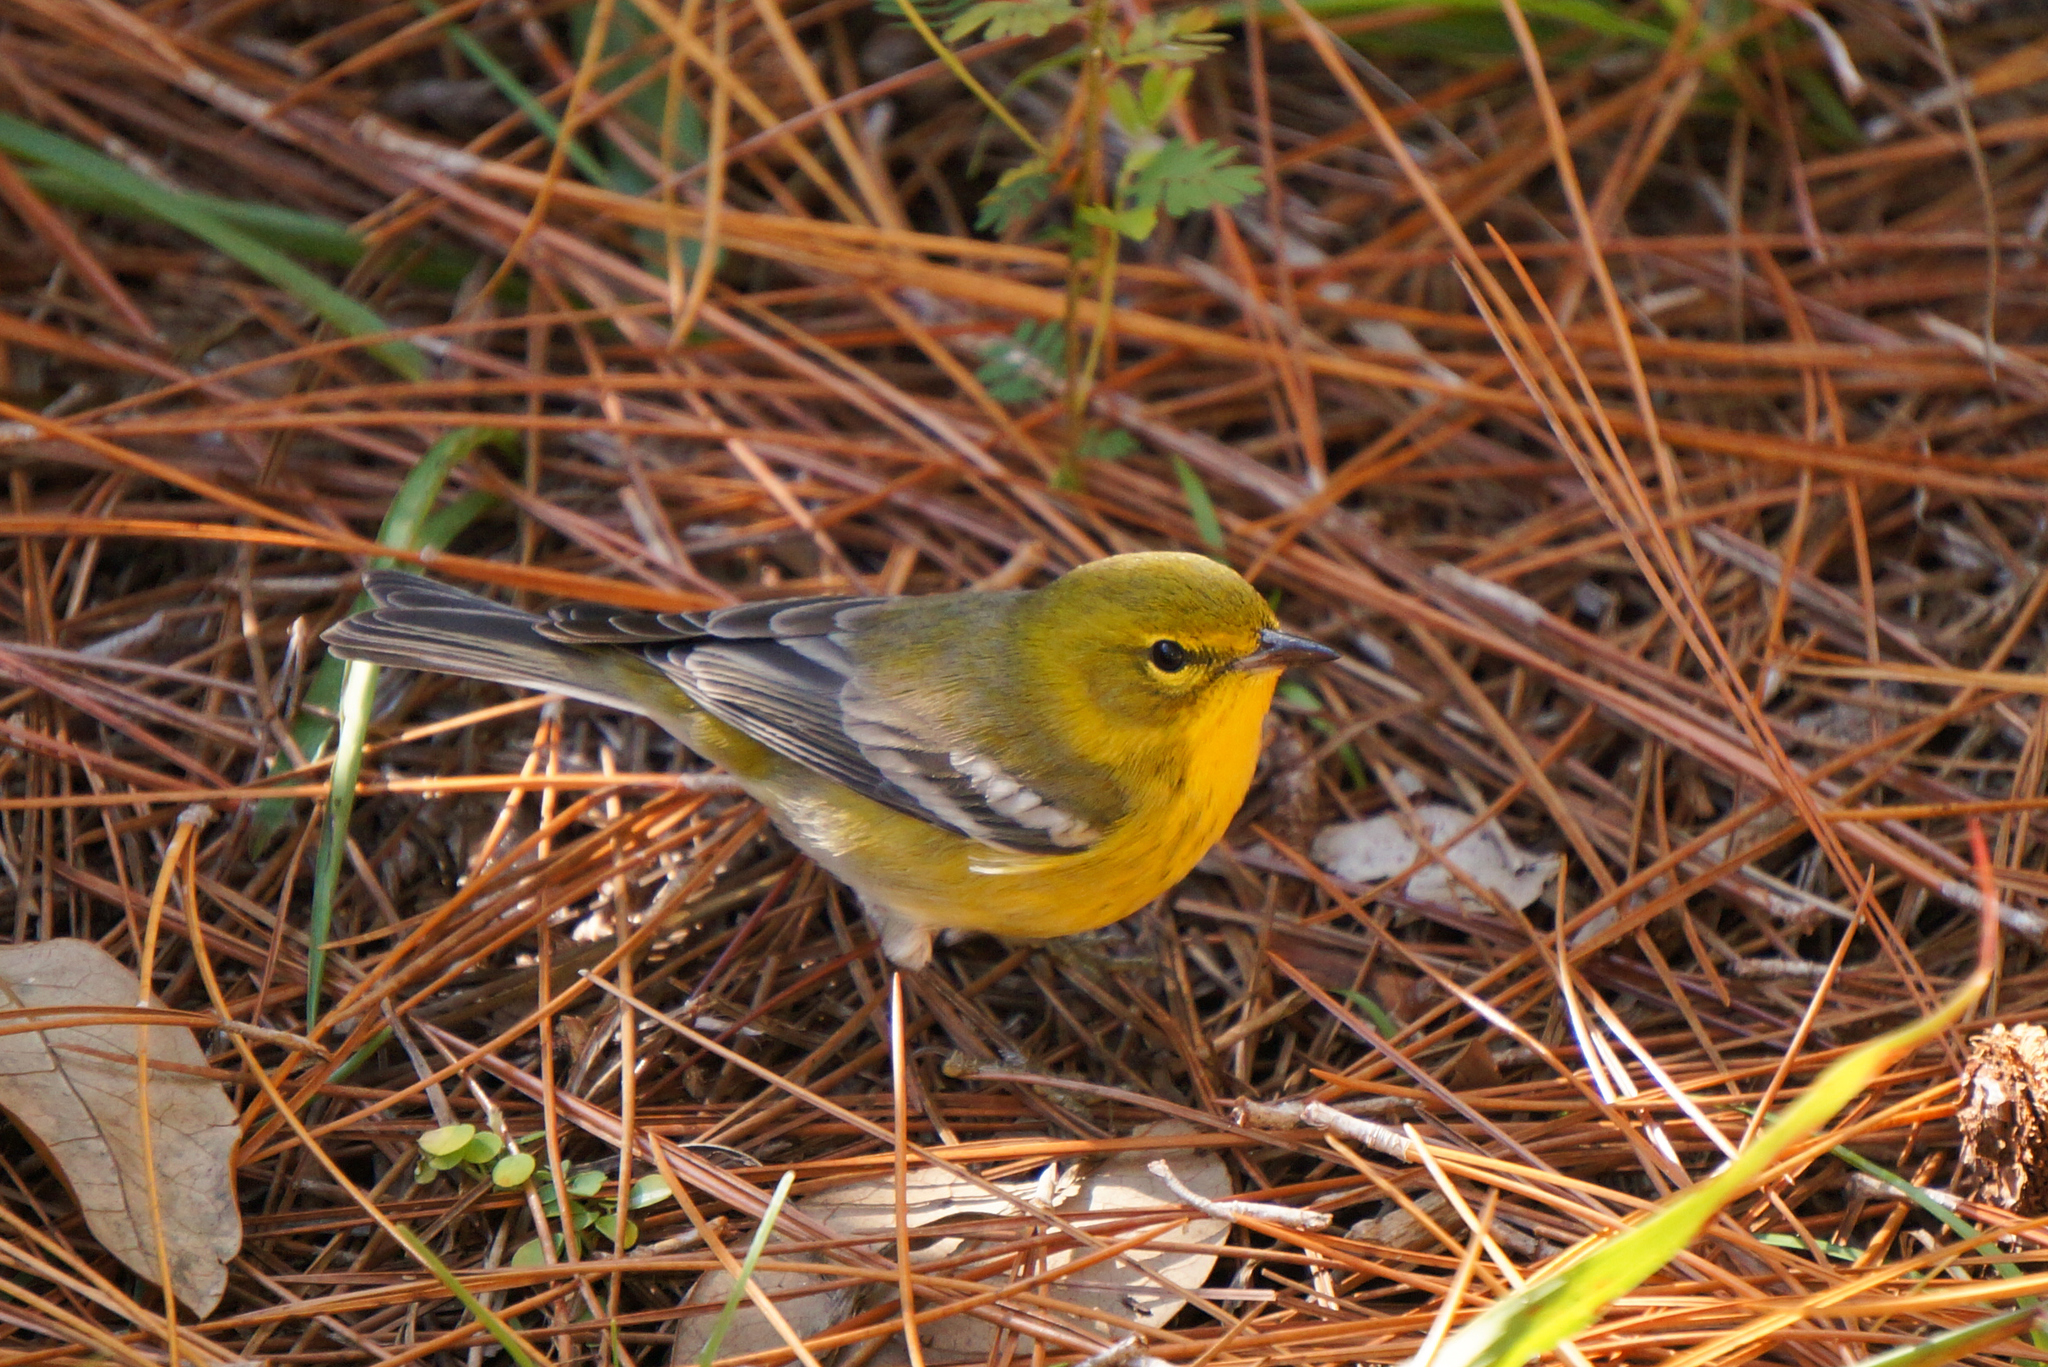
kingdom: Animalia
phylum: Chordata
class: Aves
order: Passeriformes
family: Parulidae
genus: Setophaga
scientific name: Setophaga pinus
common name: Pine warbler
